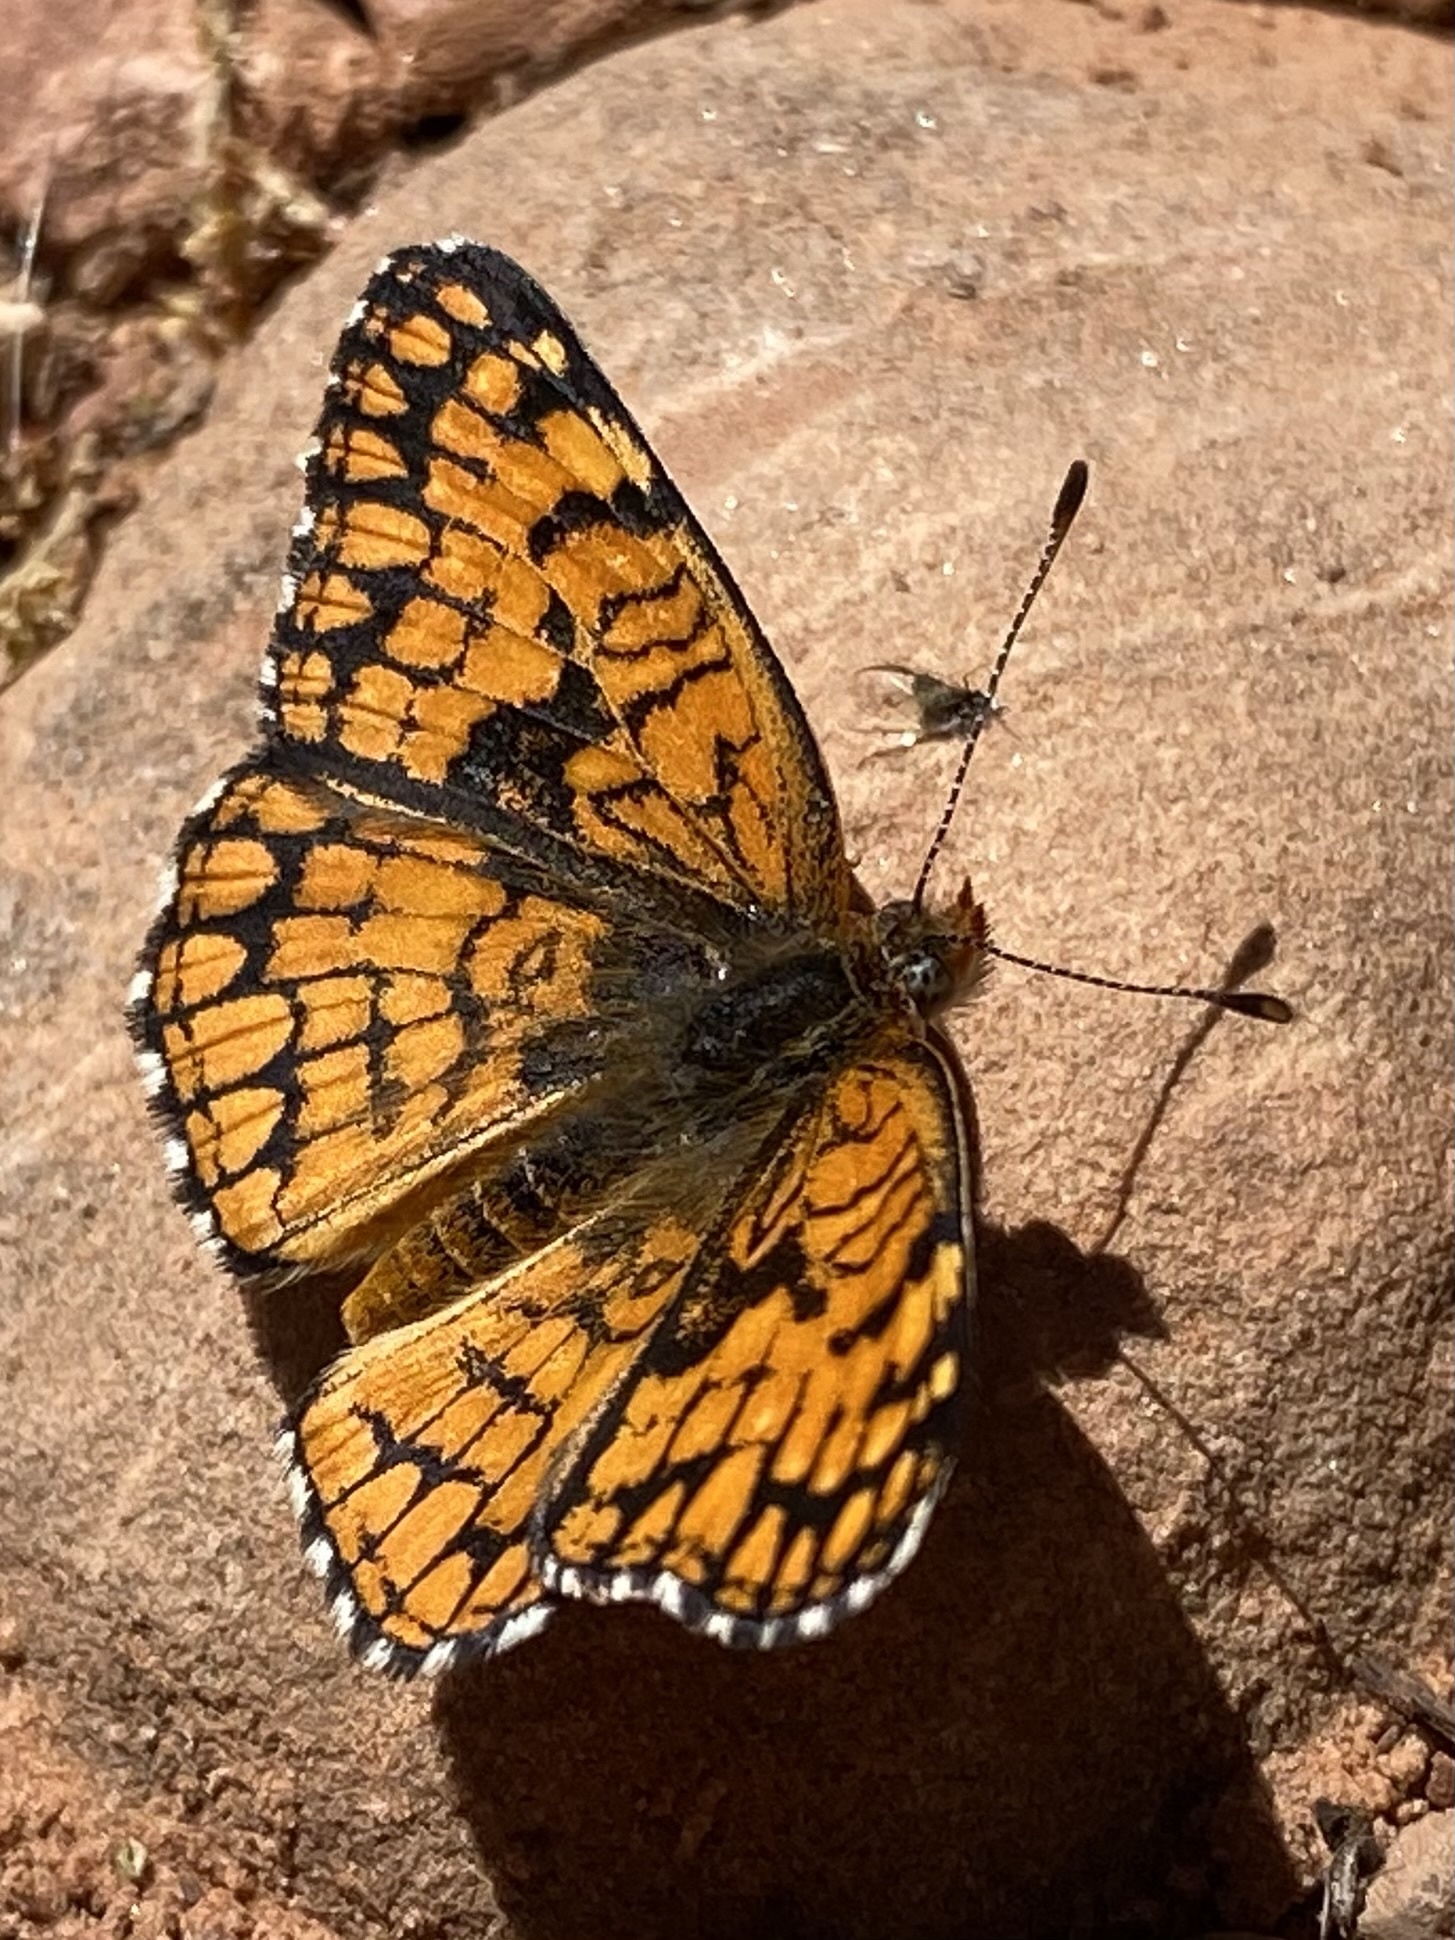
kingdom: Animalia
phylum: Arthropoda
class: Insecta
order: Lepidoptera
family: Nymphalidae
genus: Chlosyne
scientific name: Chlosyne acastus
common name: Sagebrush checkerspot
